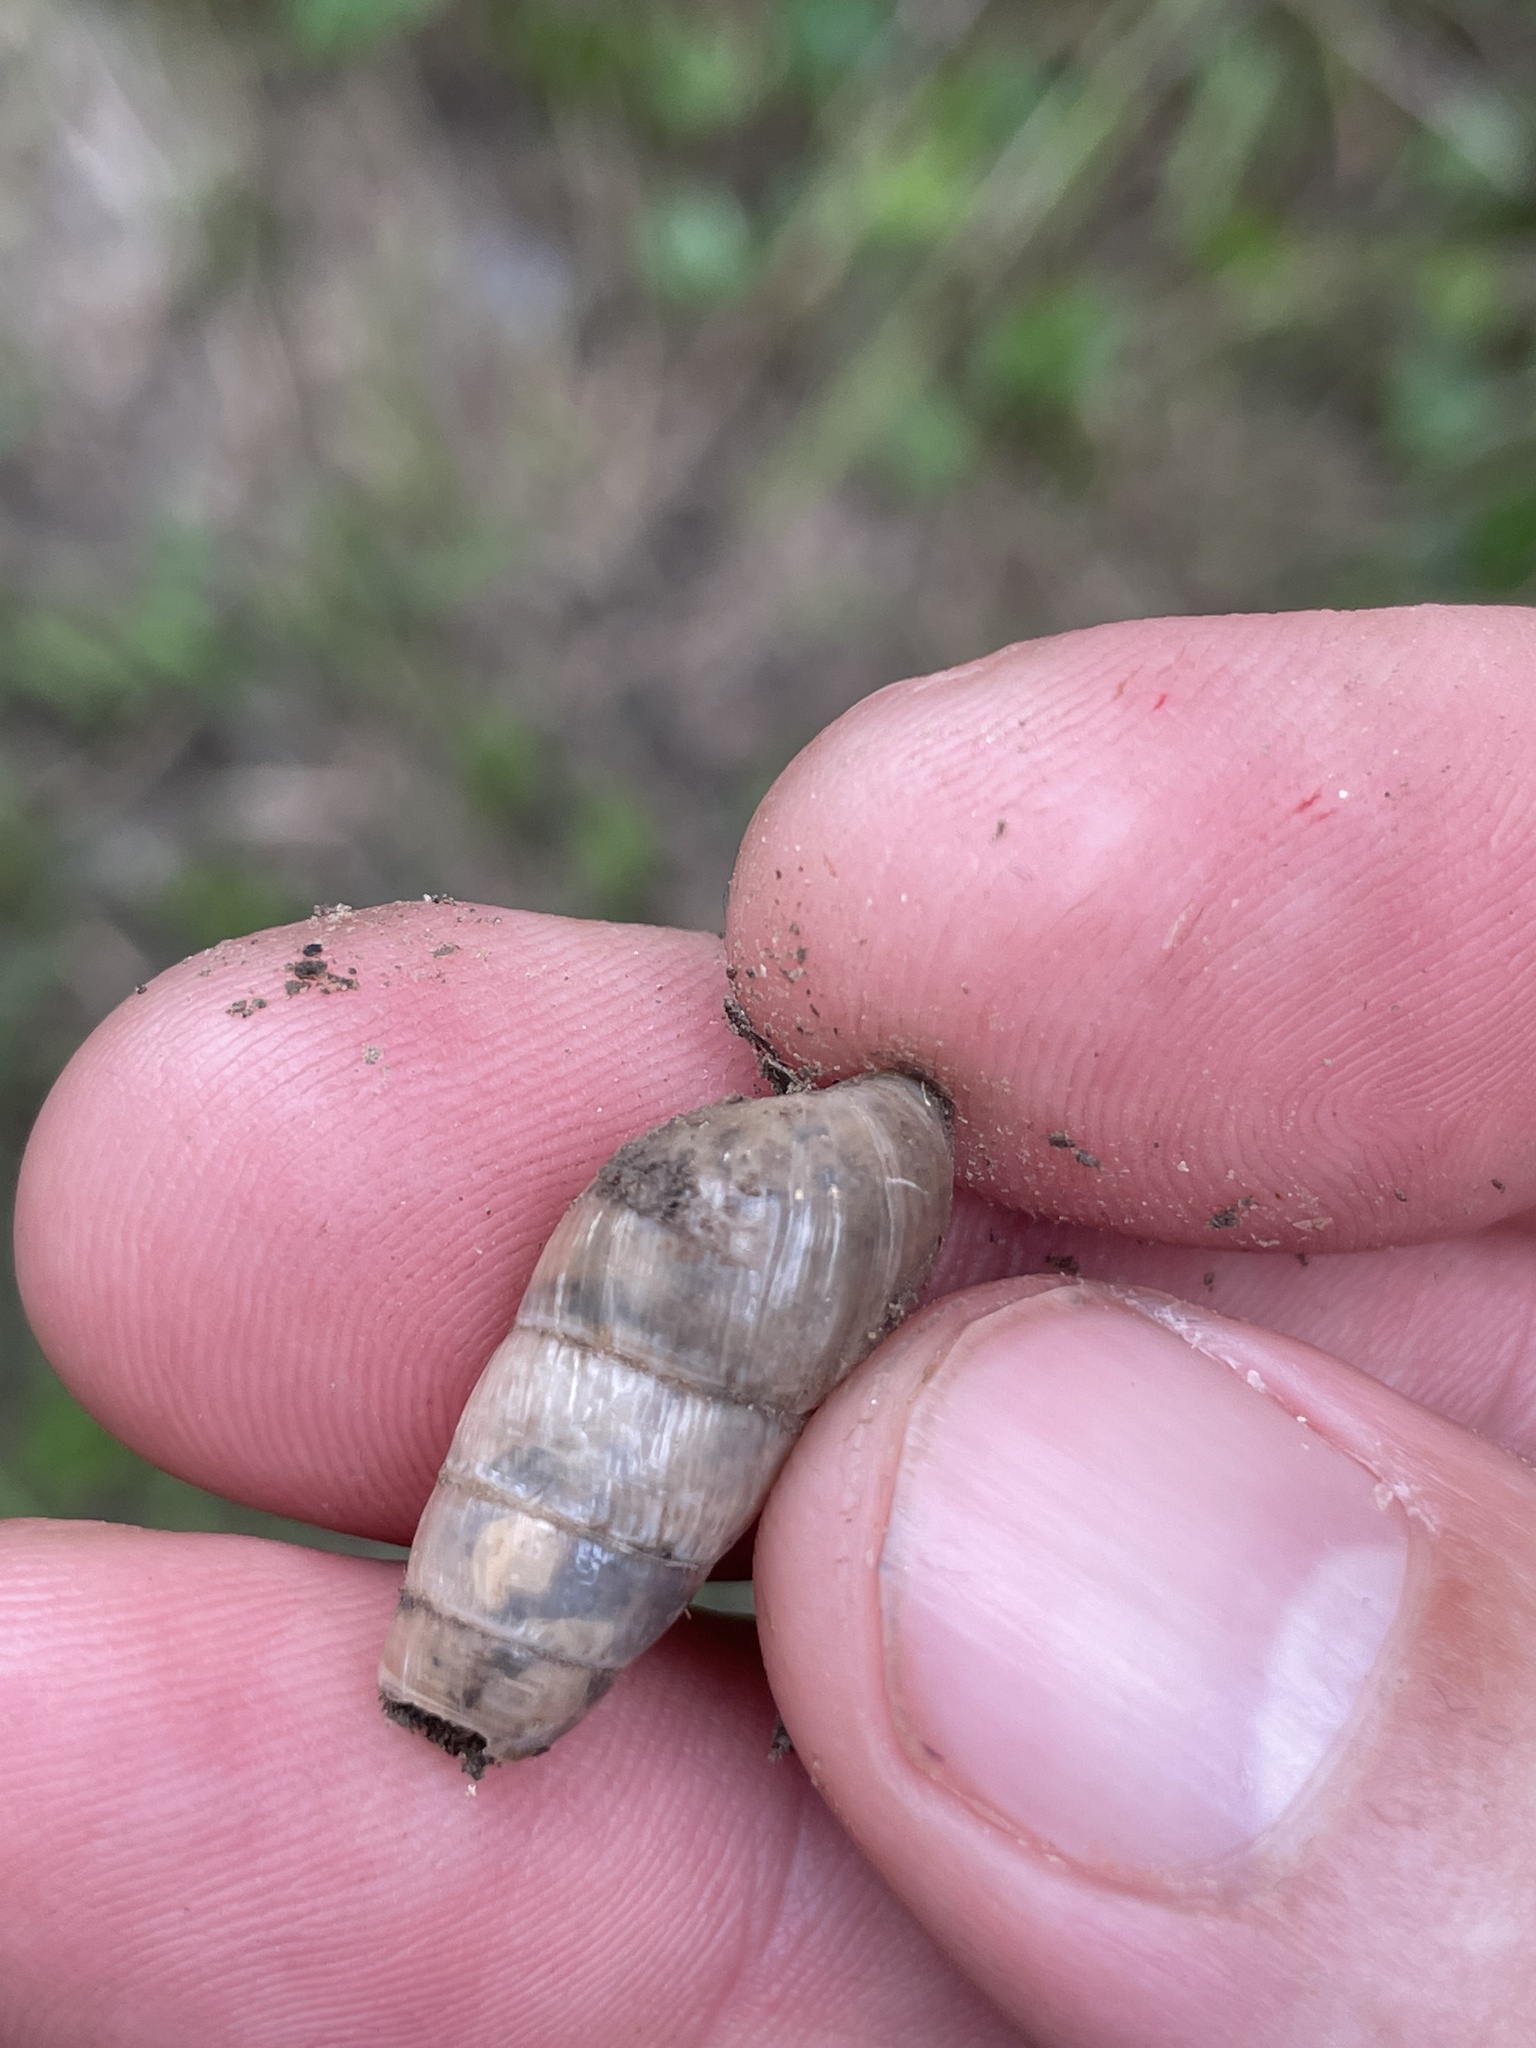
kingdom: Animalia
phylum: Mollusca
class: Gastropoda
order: Stylommatophora
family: Achatinidae
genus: Rumina
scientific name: Rumina decollata
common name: Decollate snail
